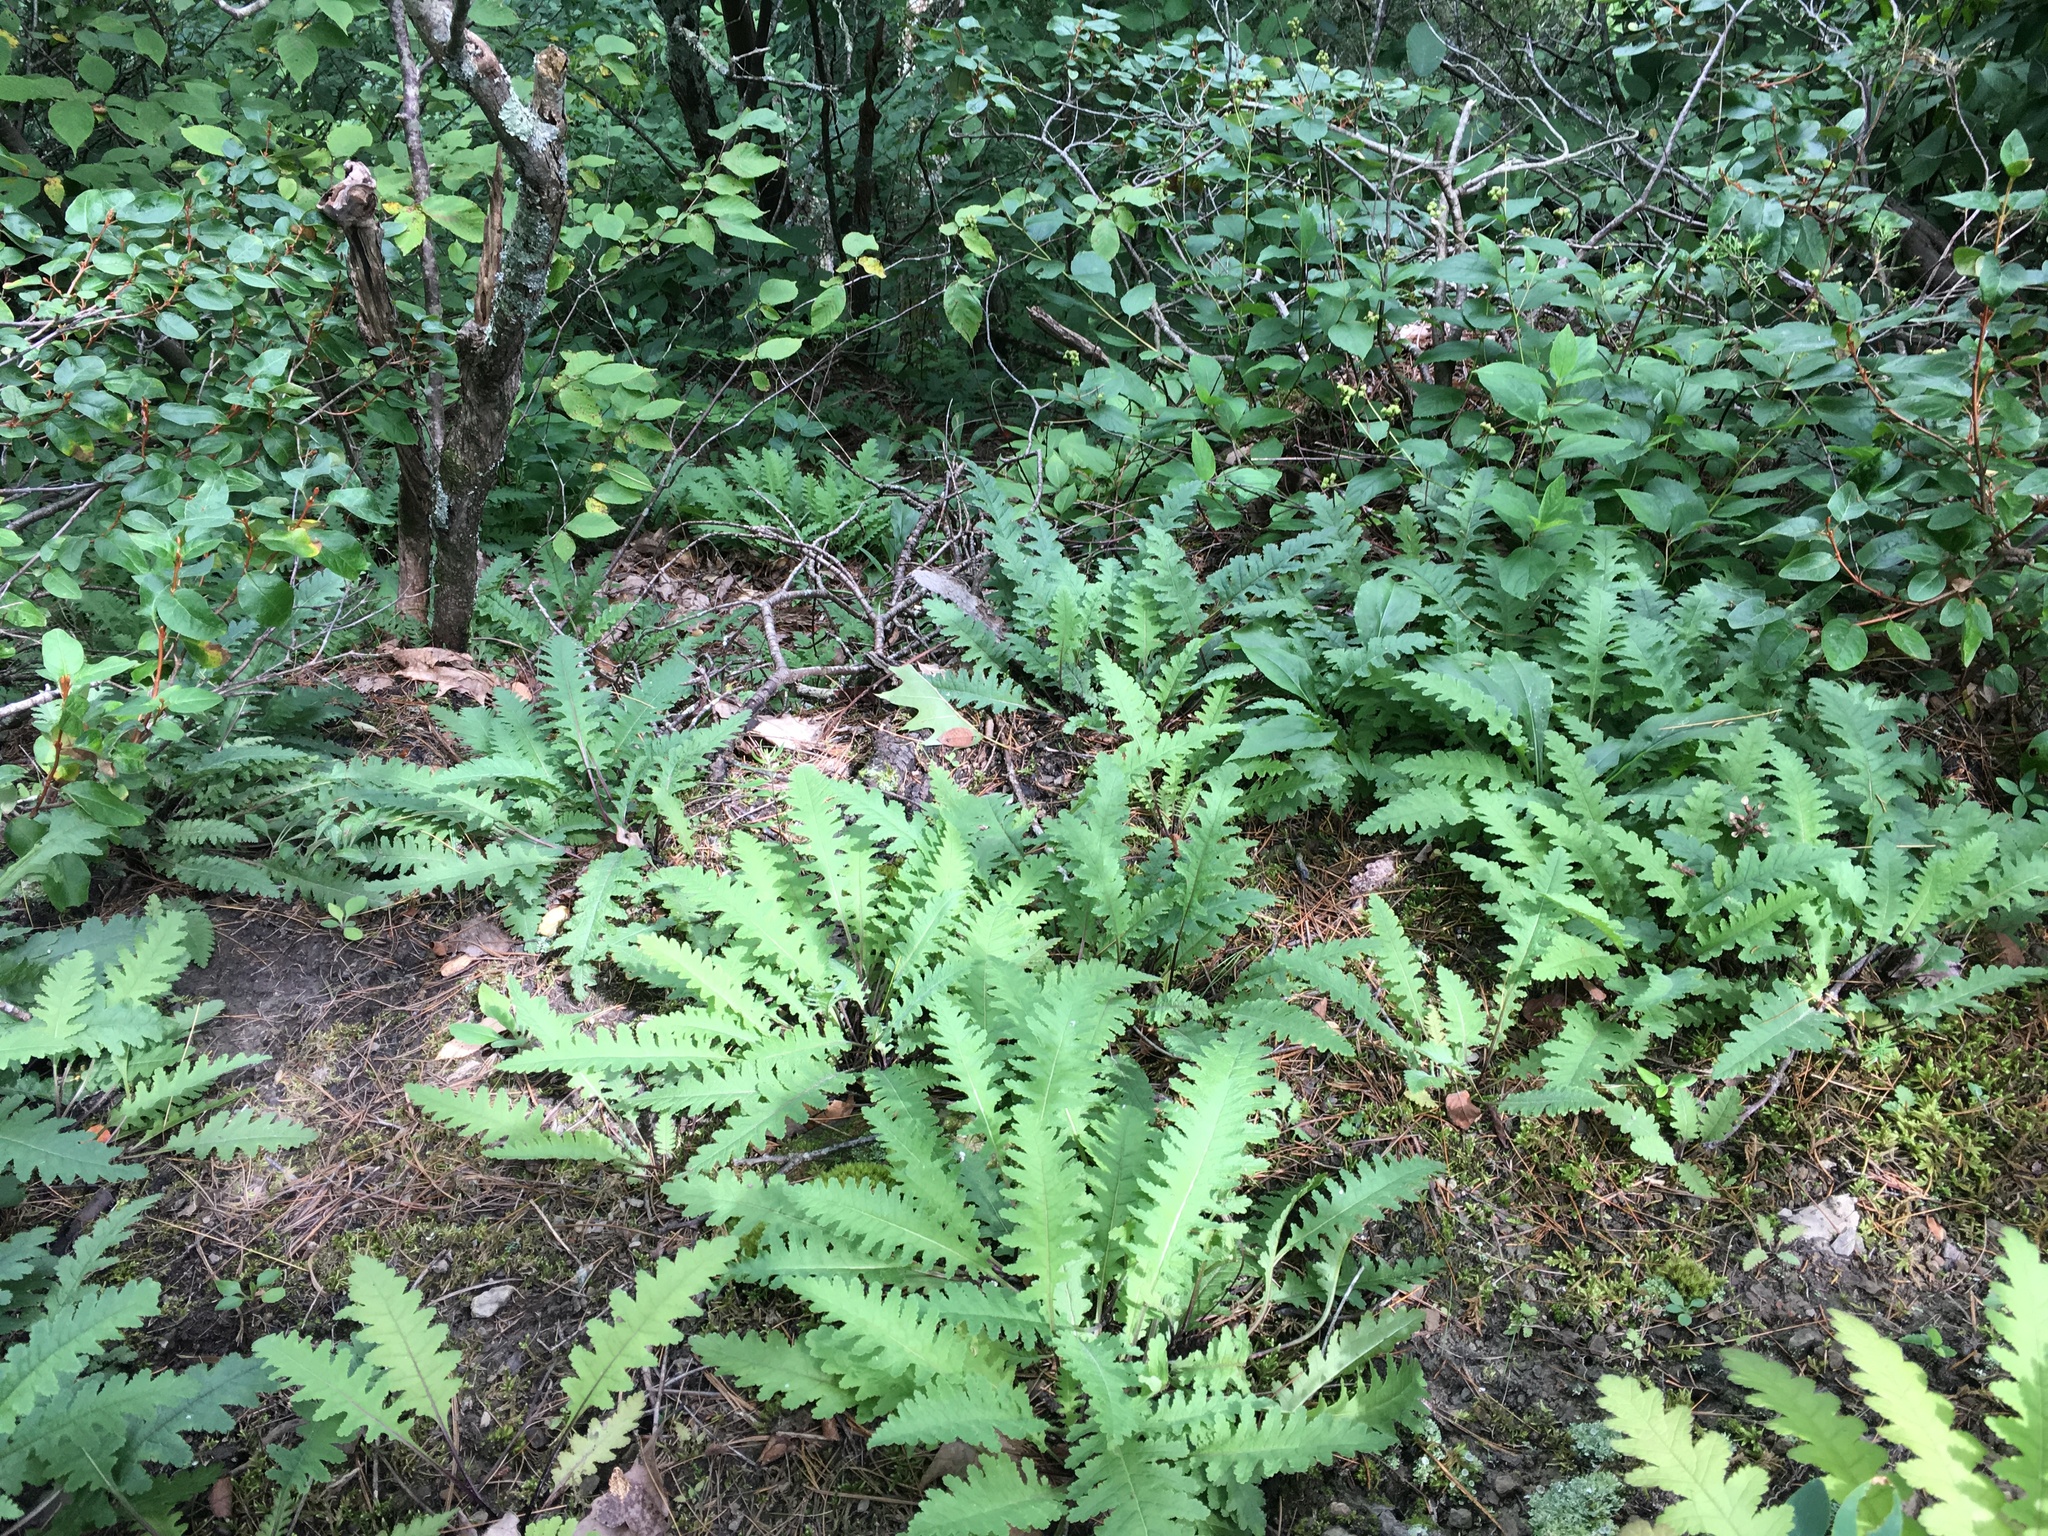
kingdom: Plantae
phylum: Tracheophyta
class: Magnoliopsida
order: Lamiales
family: Orobanchaceae
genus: Pedicularis
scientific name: Pedicularis canadensis
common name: Early lousewort
